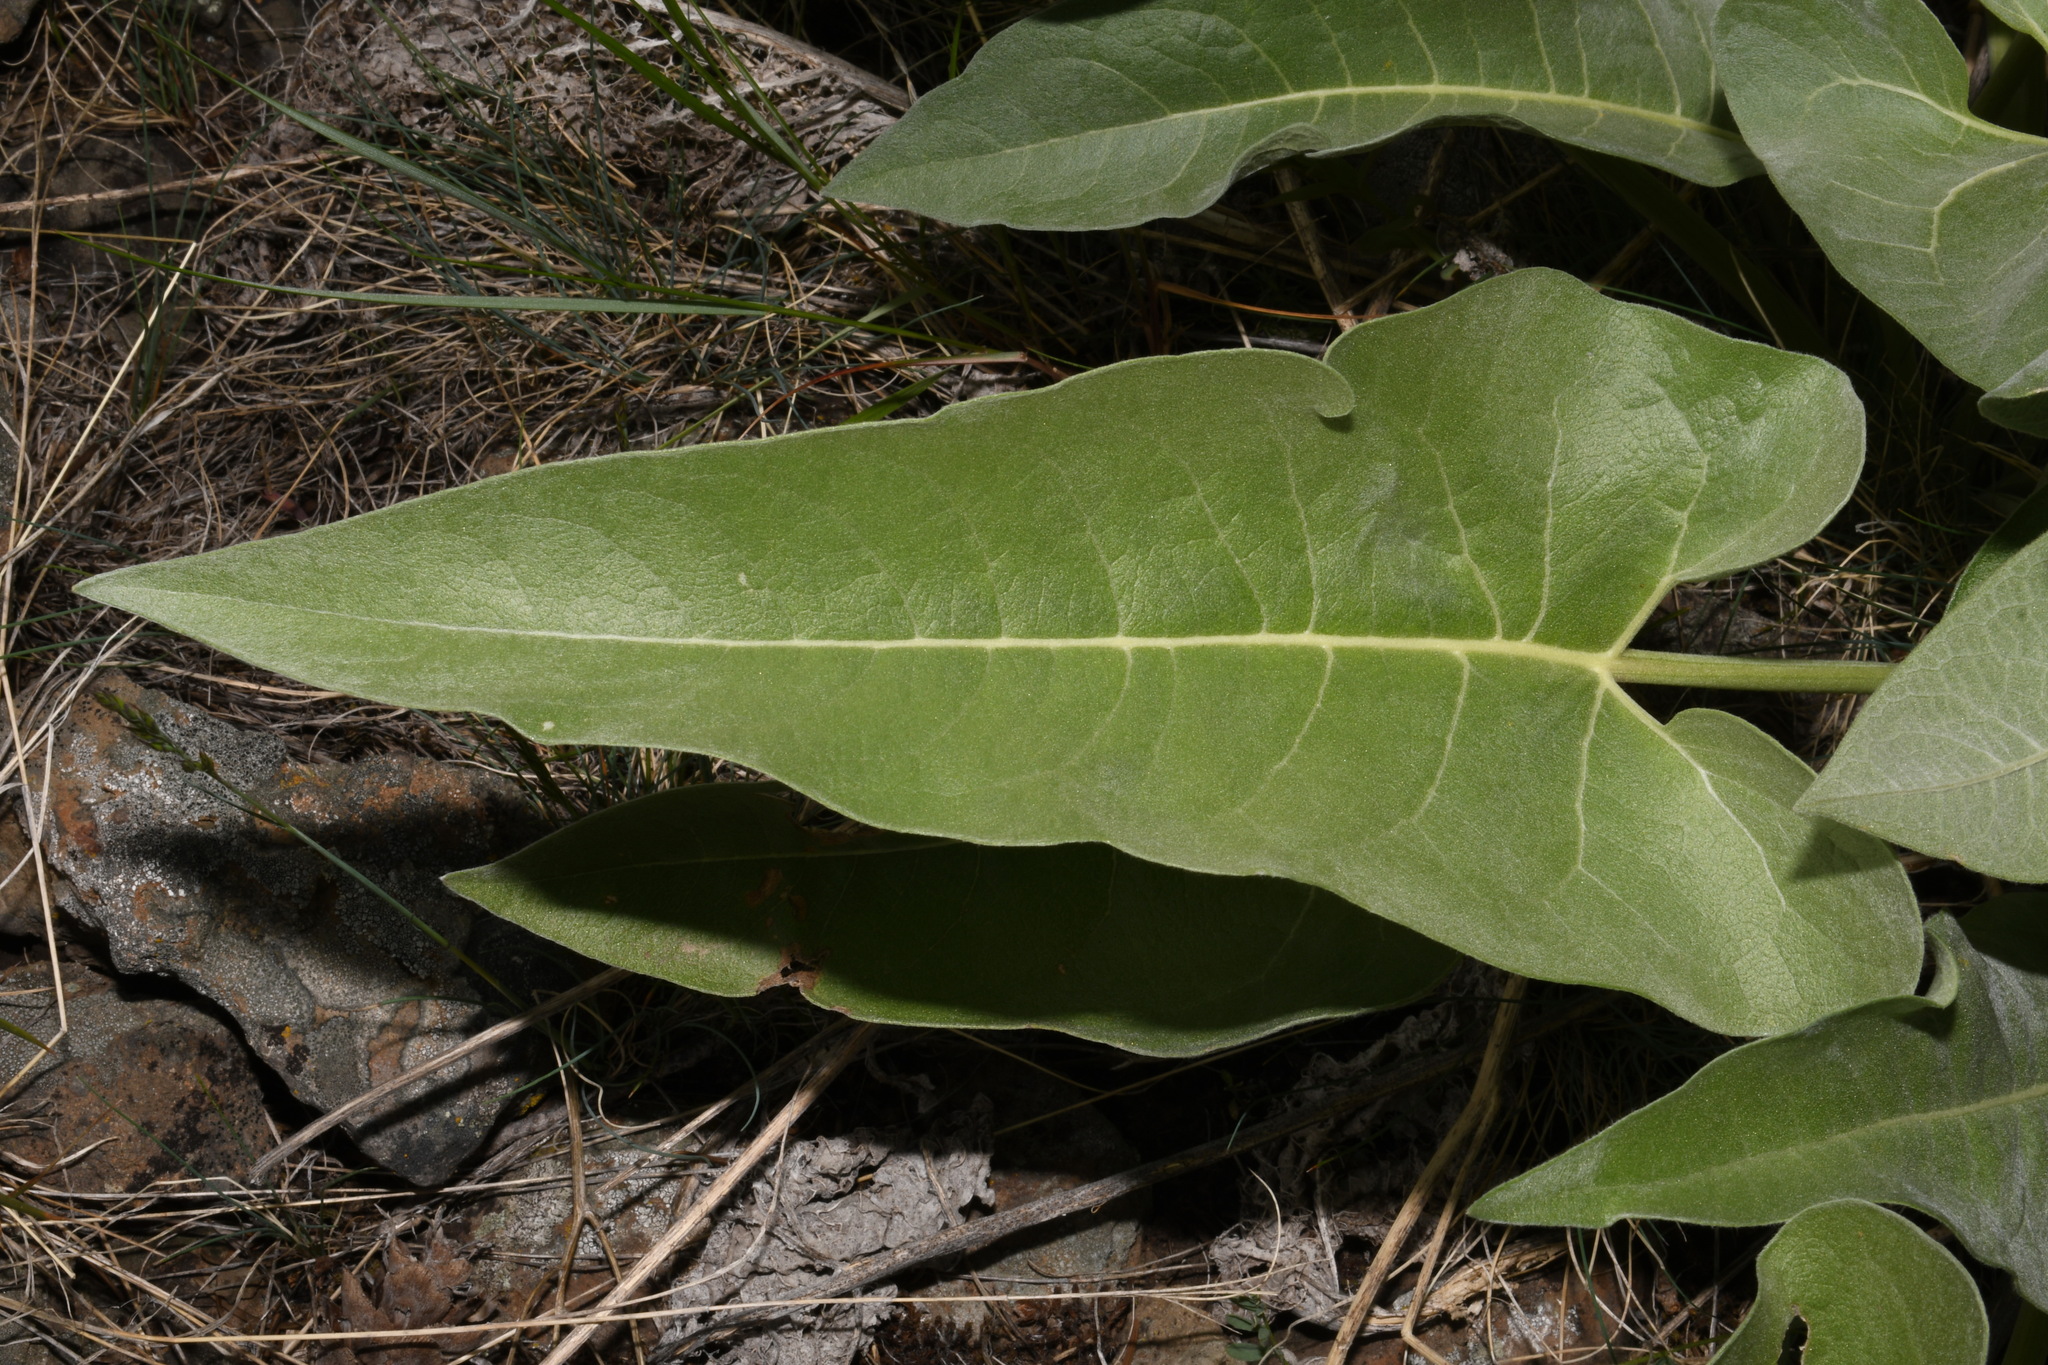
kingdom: Plantae
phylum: Tracheophyta
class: Magnoliopsida
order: Asterales
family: Asteraceae
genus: Wyethia
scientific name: Wyethia sagittata
